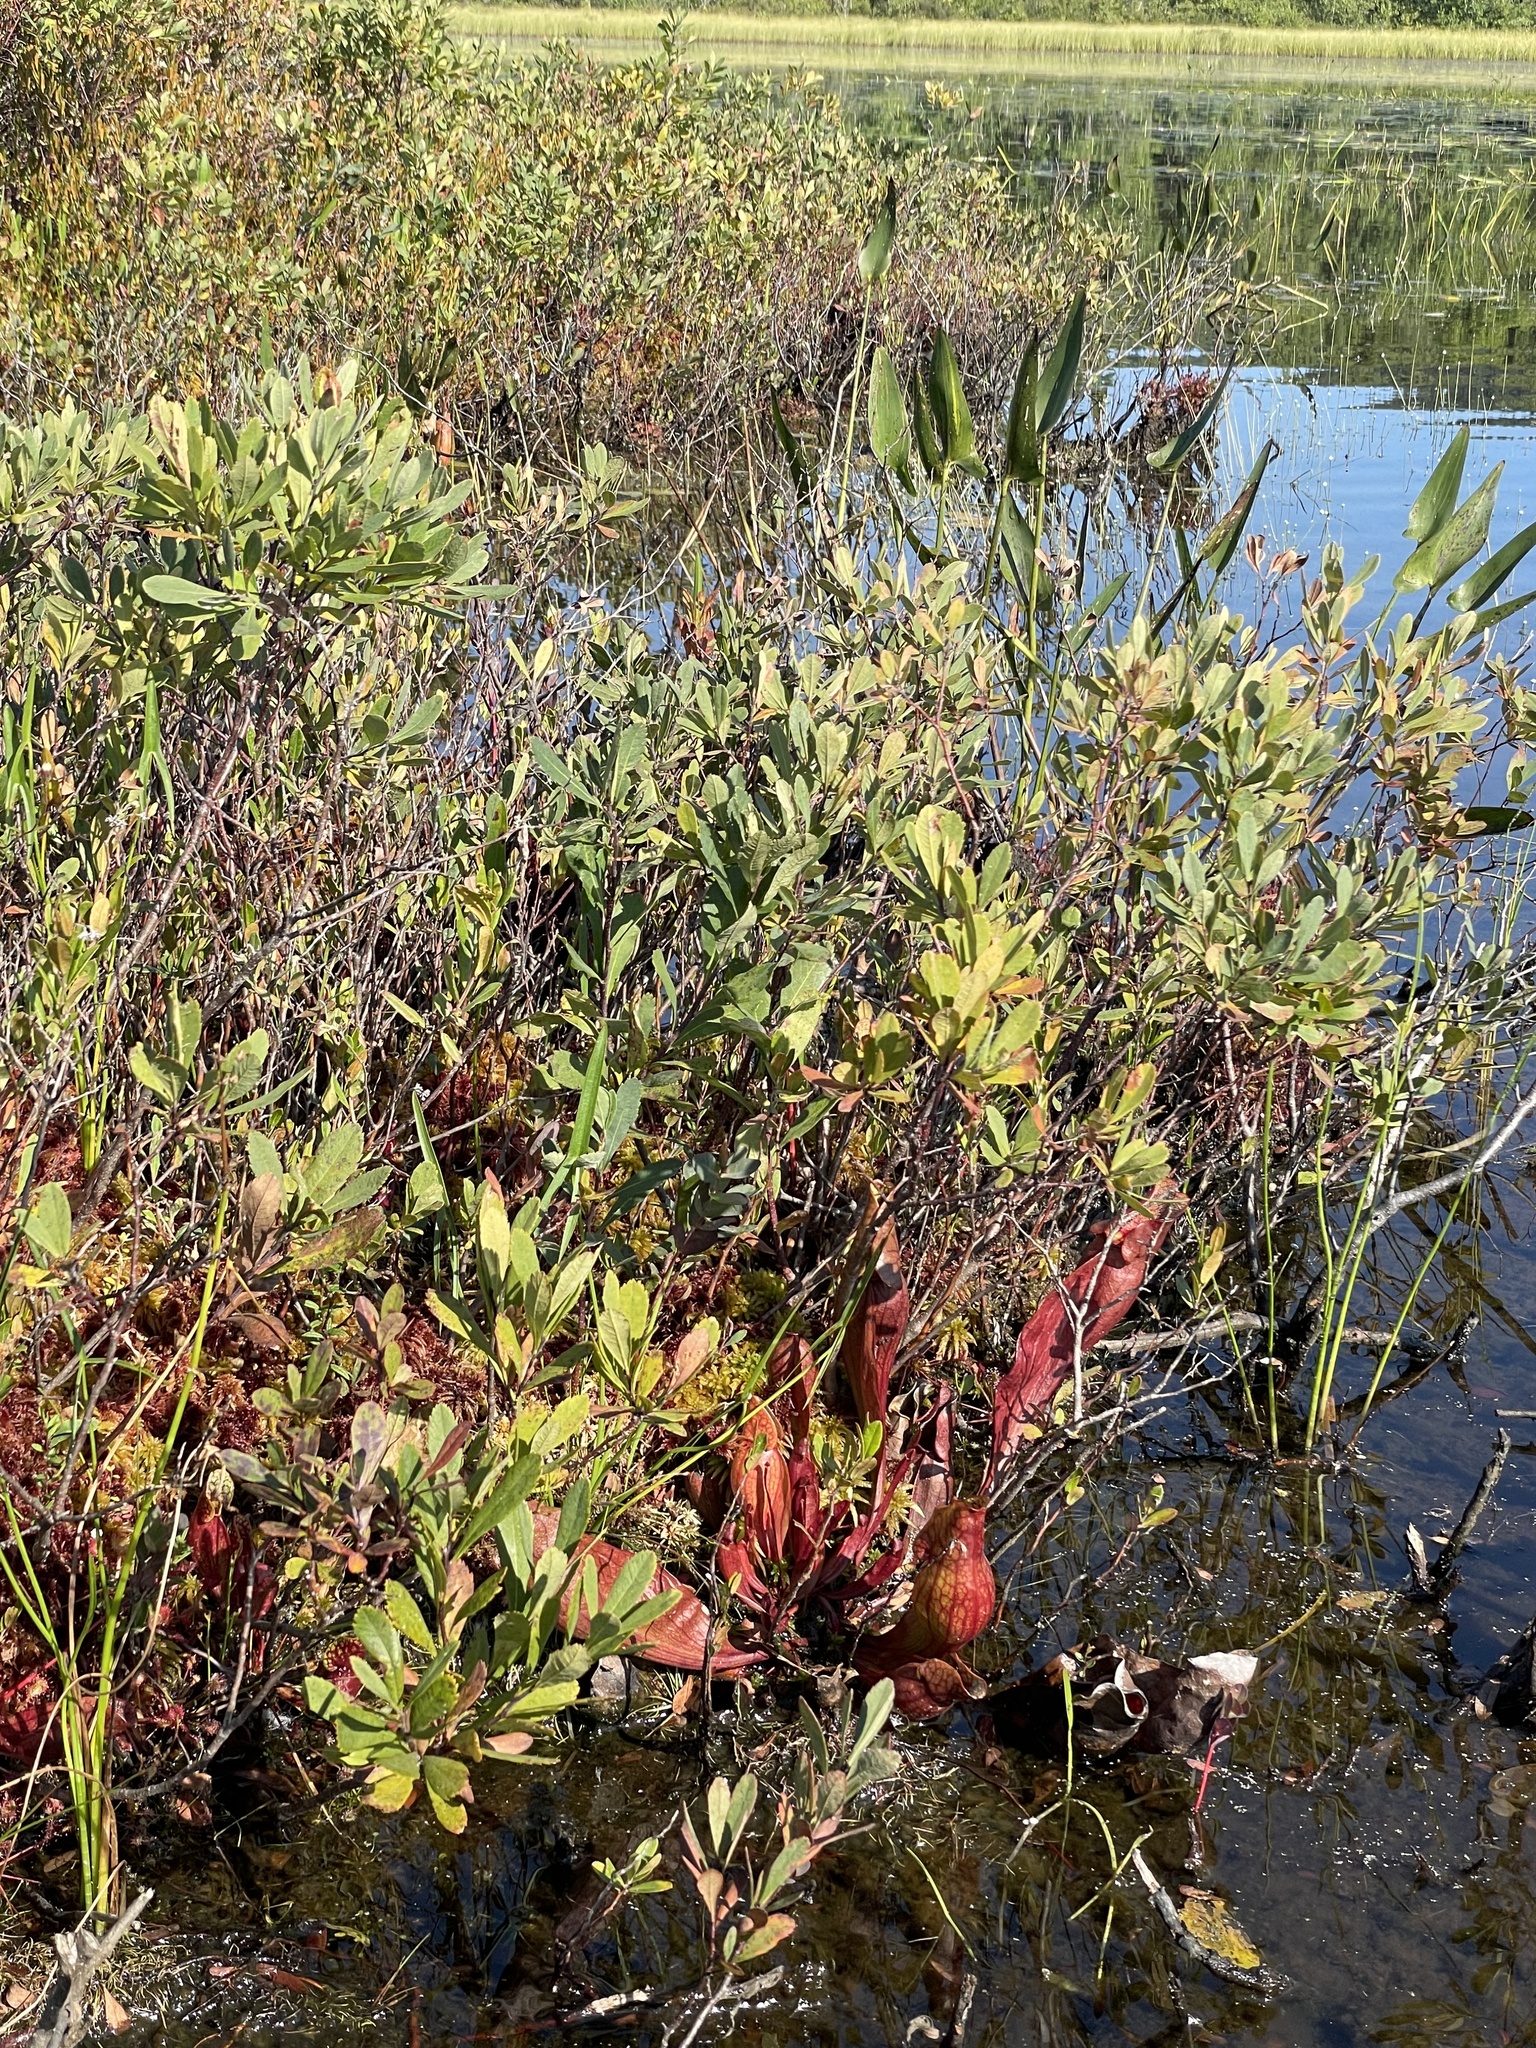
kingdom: Plantae
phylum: Tracheophyta
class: Magnoliopsida
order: Ericales
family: Sarraceniaceae
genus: Sarracenia
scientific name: Sarracenia purpurea
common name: Pitcherplant
